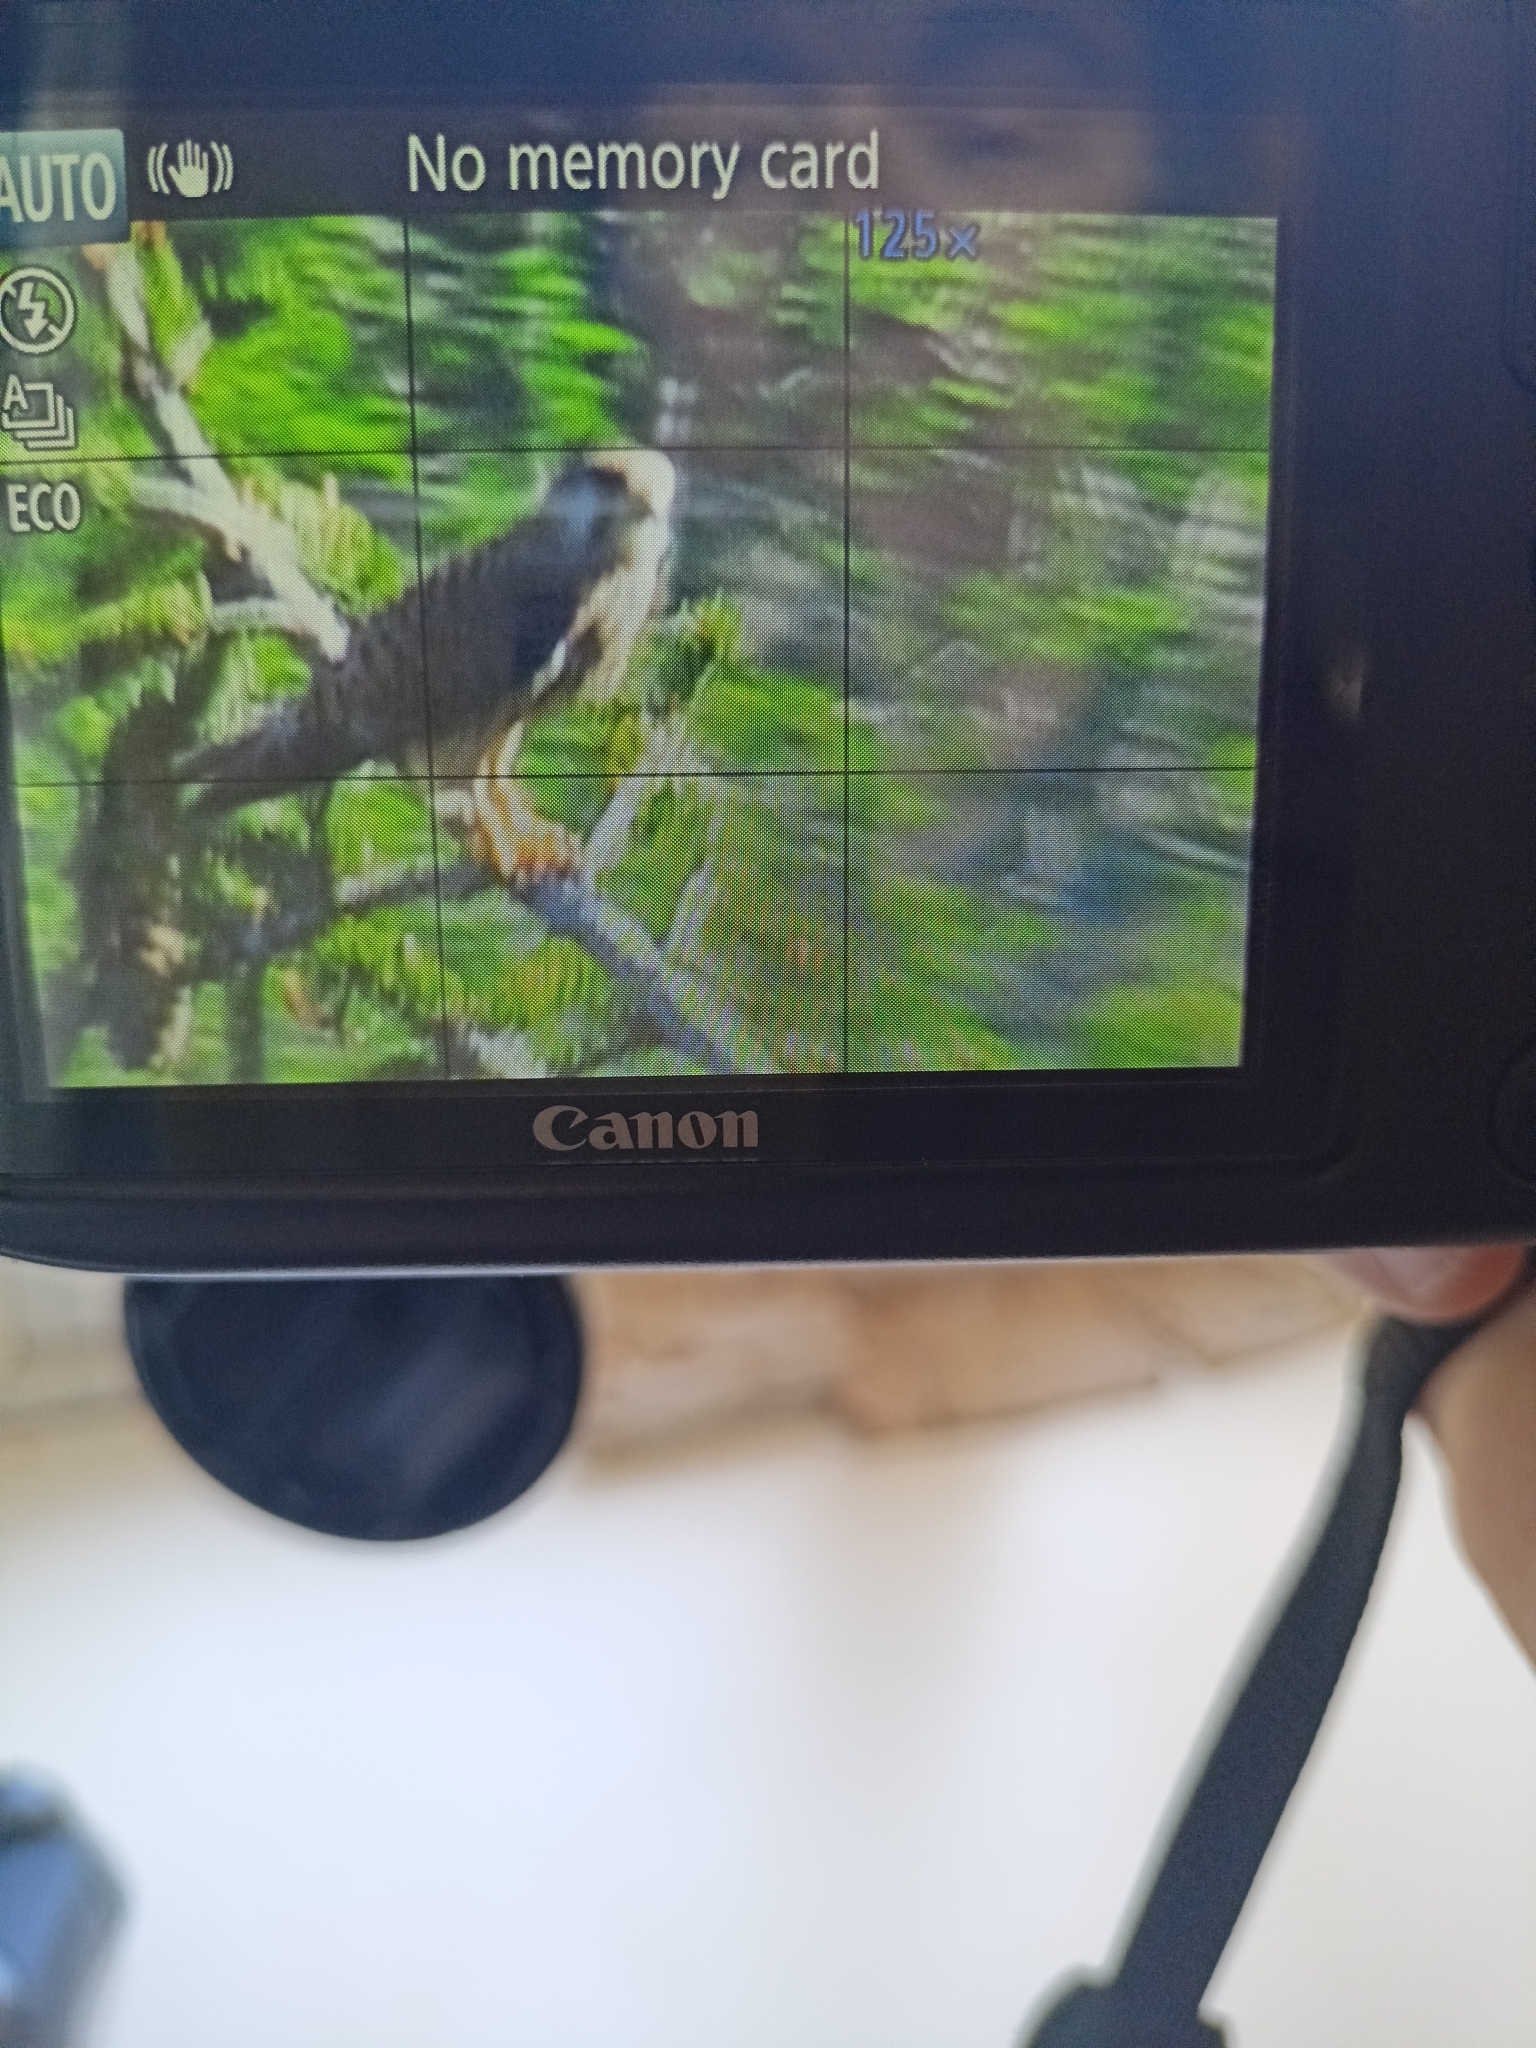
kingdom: Animalia
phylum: Chordata
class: Aves
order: Falconiformes
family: Falconidae
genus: Falco
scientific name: Falco tinnunculus
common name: Common kestrel
